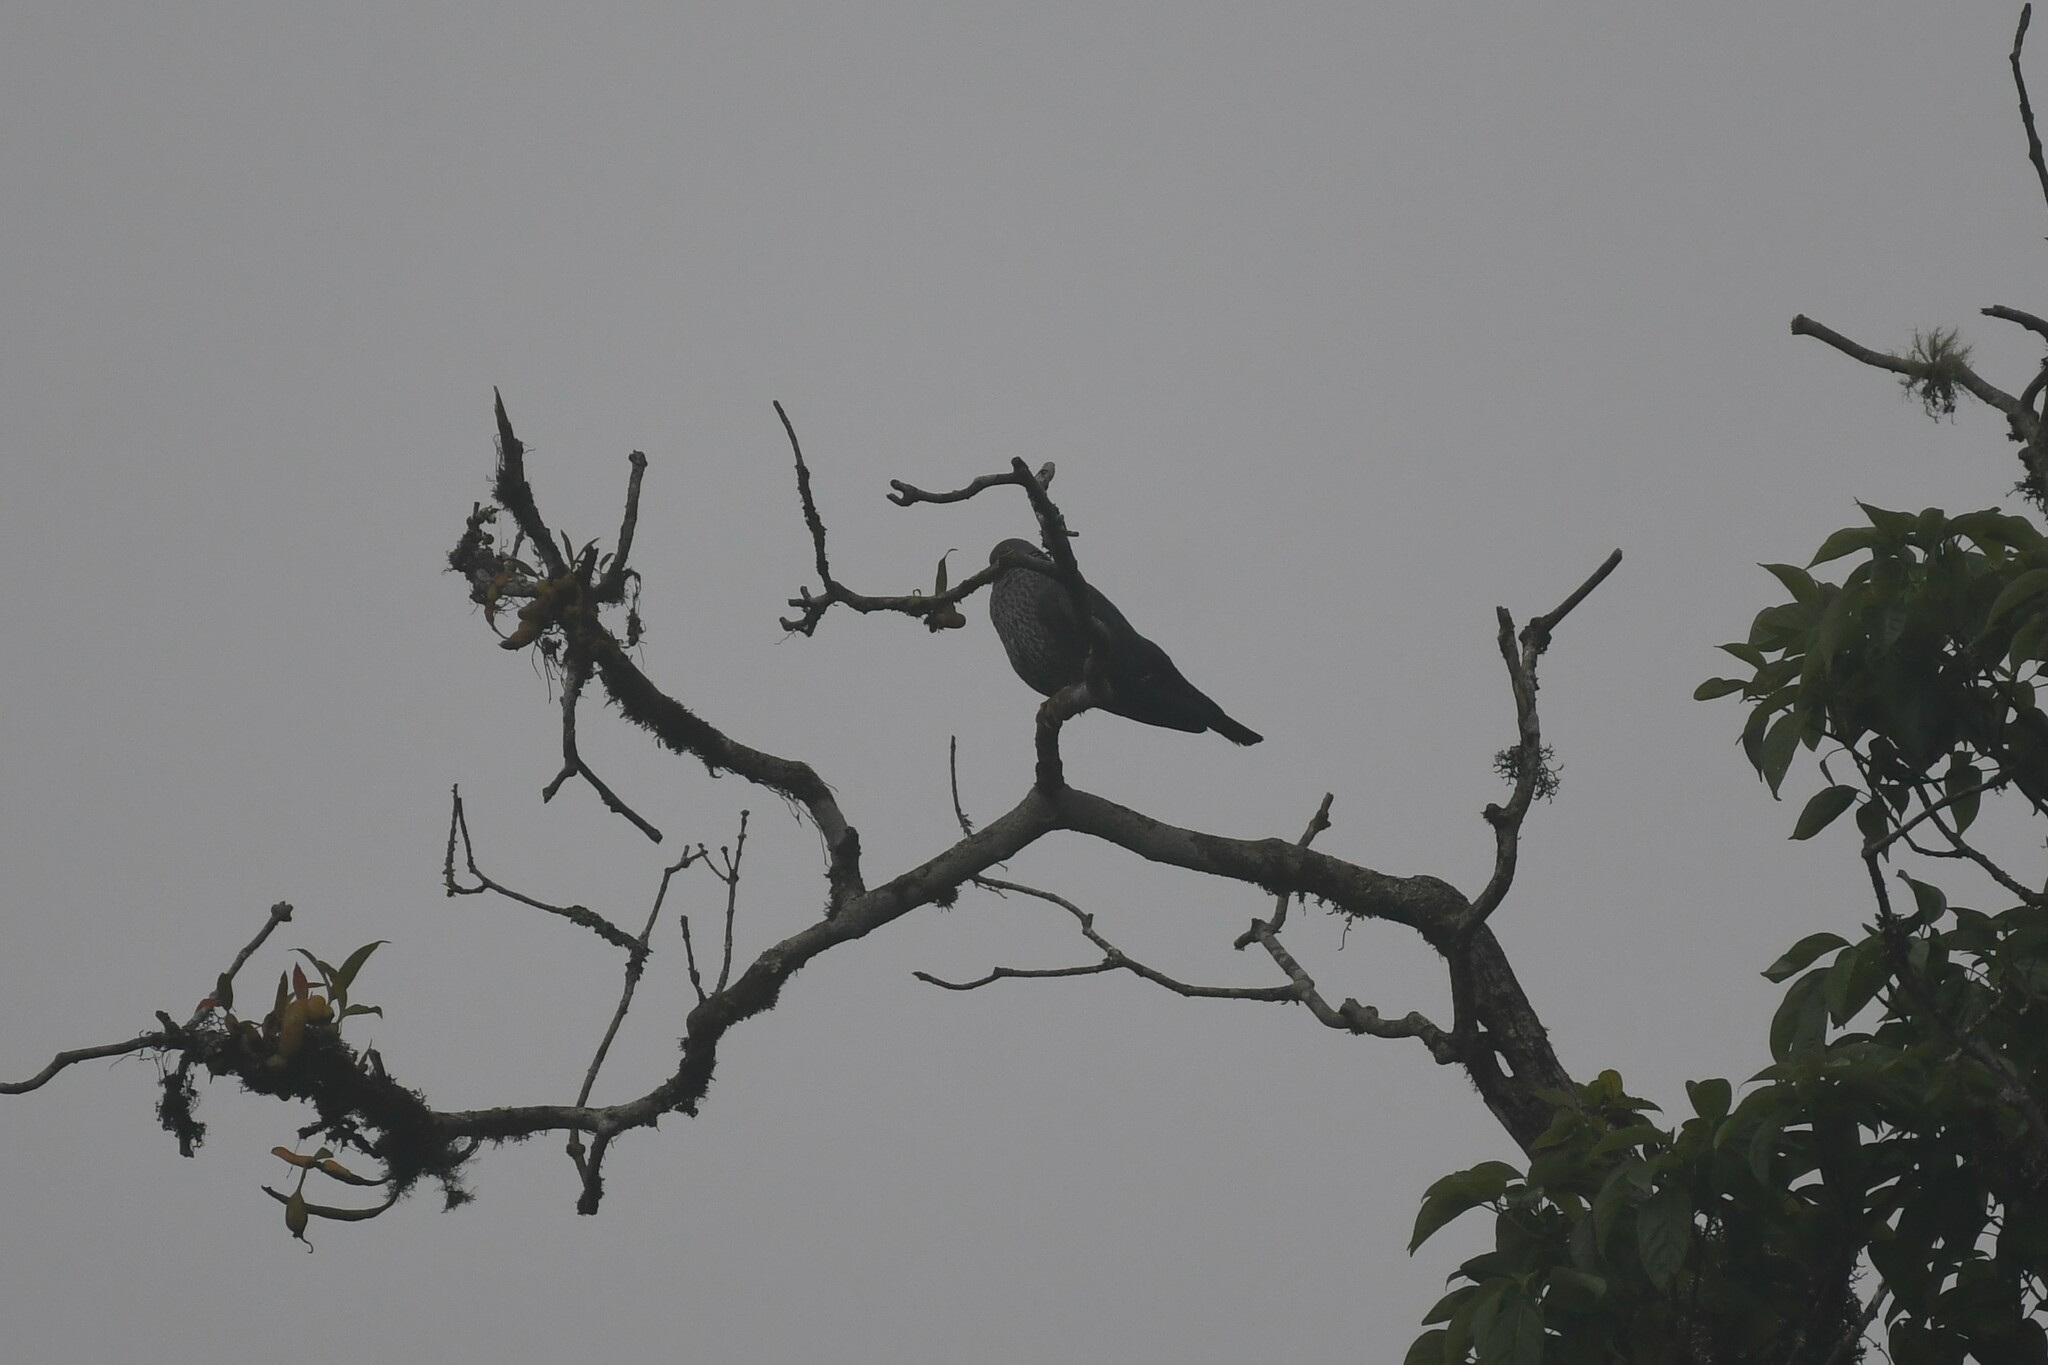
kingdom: Animalia
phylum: Chordata
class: Aves
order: Columbiformes
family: Columbidae
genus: Columba
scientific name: Columba hodgsonii
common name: Speckled wood pigeon
